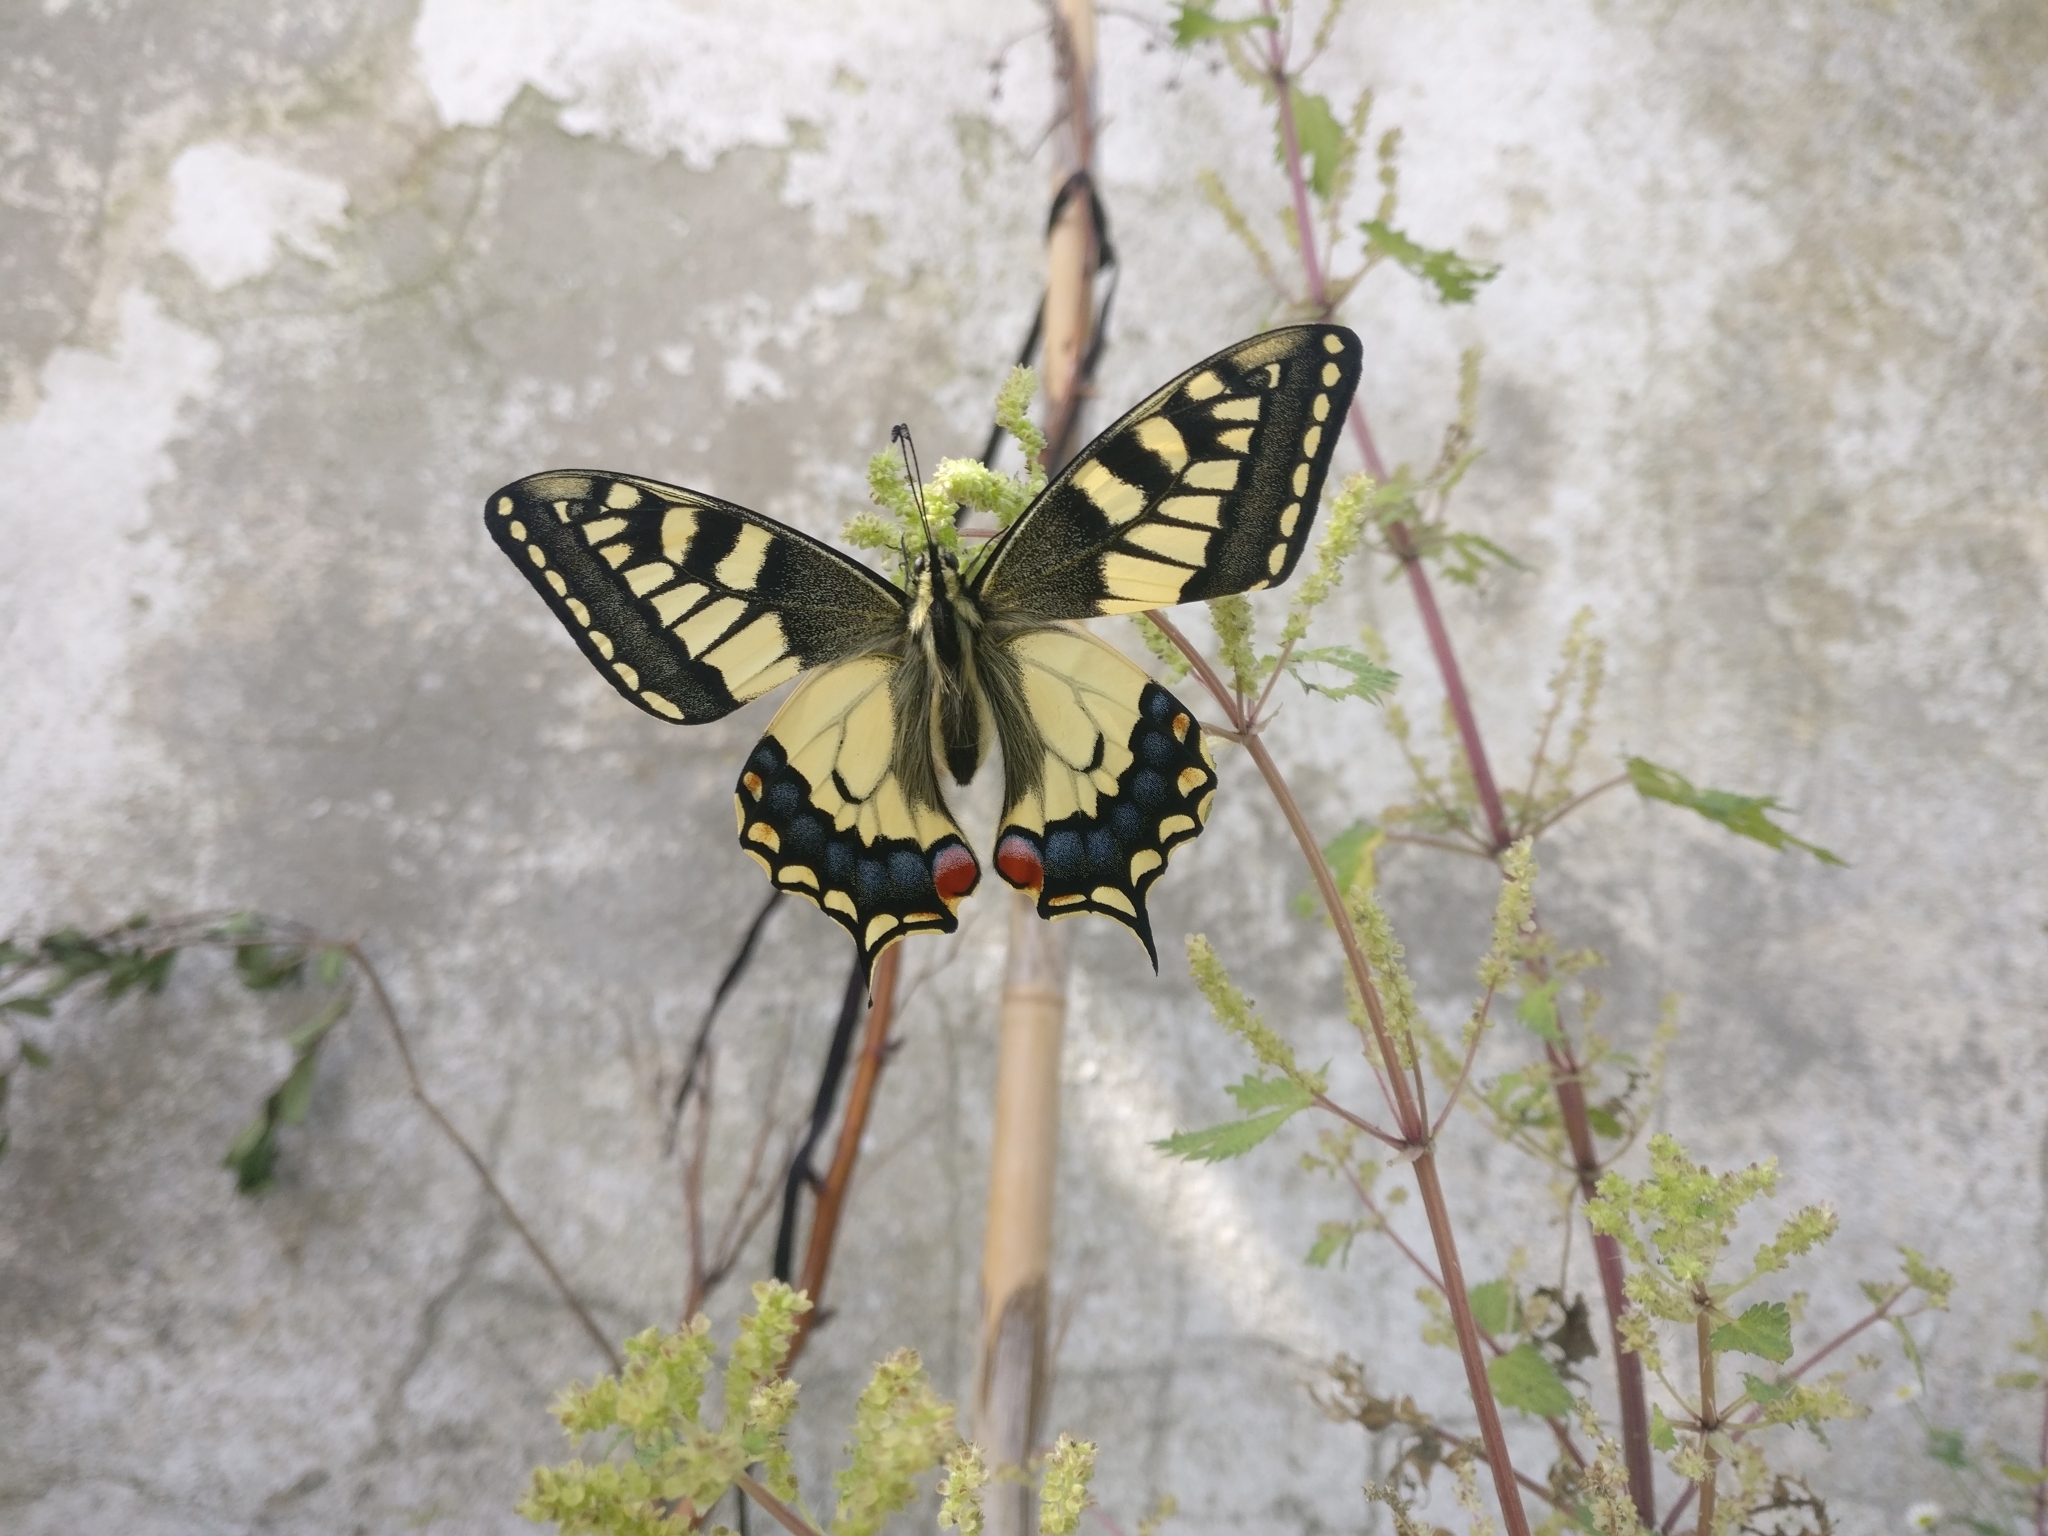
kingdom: Animalia
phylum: Arthropoda
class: Insecta
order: Lepidoptera
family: Papilionidae
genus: Papilio
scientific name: Papilio machaon
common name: Swallowtail
